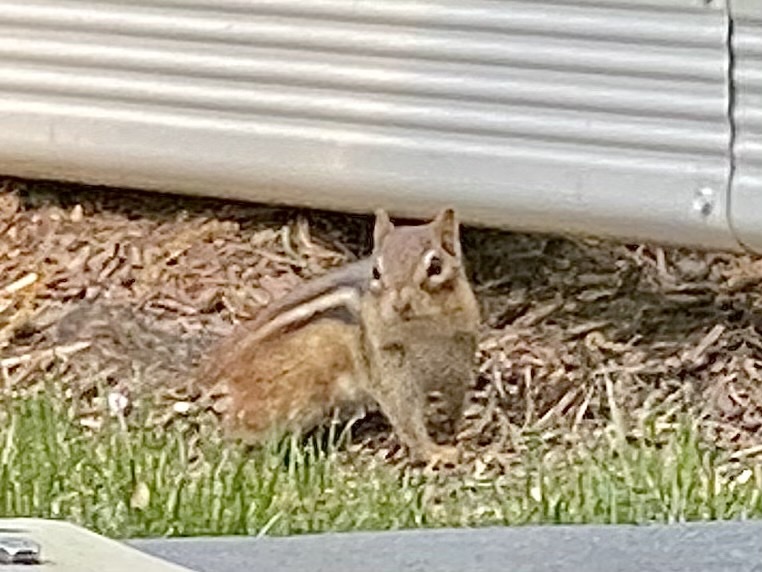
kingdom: Animalia
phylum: Chordata
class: Mammalia
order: Rodentia
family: Sciuridae
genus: Tamias
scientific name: Tamias striatus
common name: Eastern chipmunk
